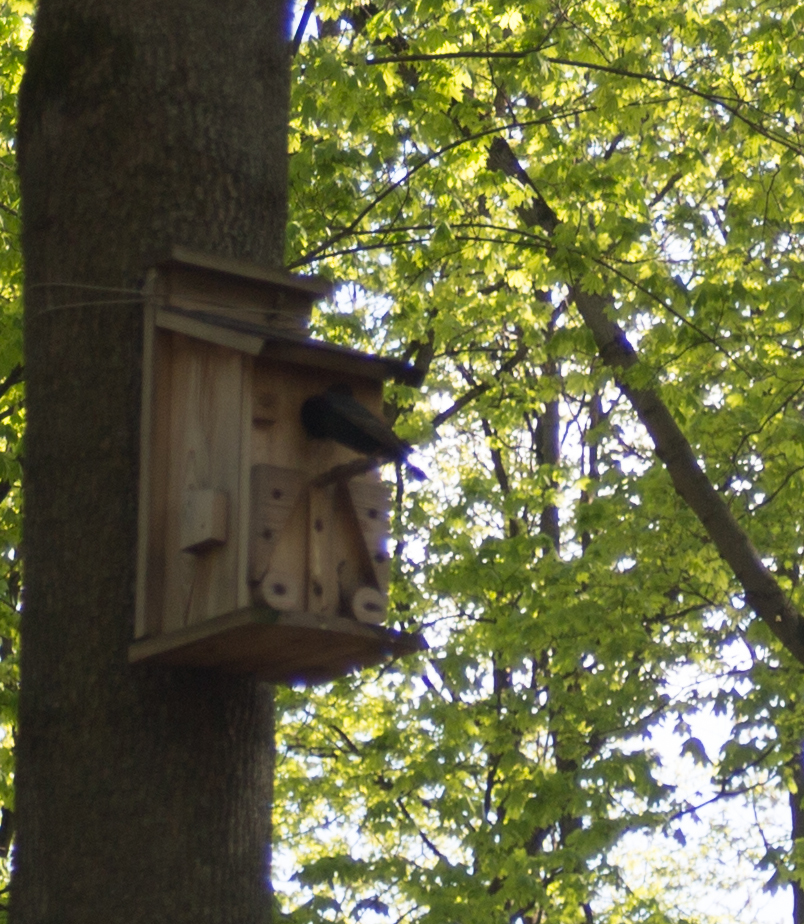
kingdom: Animalia
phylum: Chordata
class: Aves
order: Passeriformes
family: Sturnidae
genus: Sturnus
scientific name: Sturnus vulgaris
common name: Common starling
